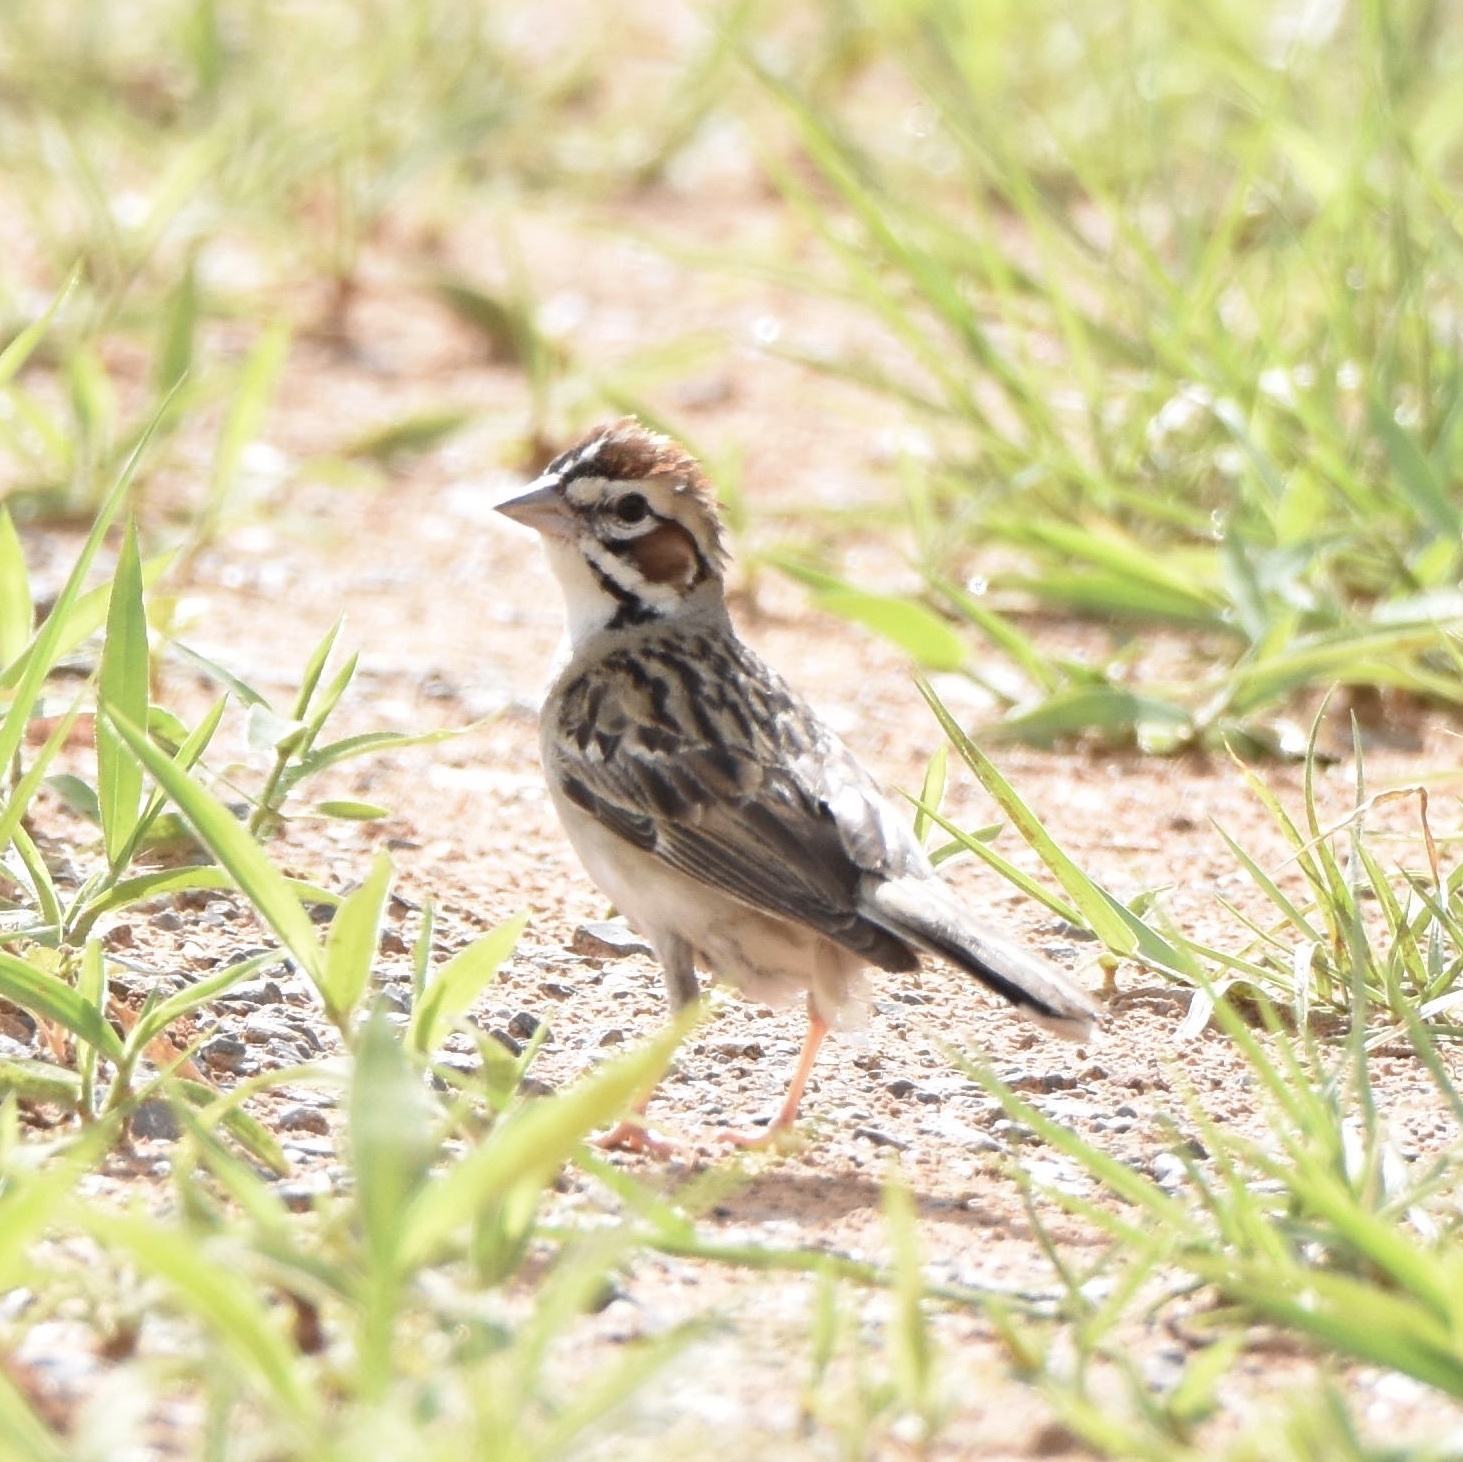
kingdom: Animalia
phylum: Chordata
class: Aves
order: Passeriformes
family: Passerellidae
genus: Chondestes
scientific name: Chondestes grammacus
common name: Lark sparrow
